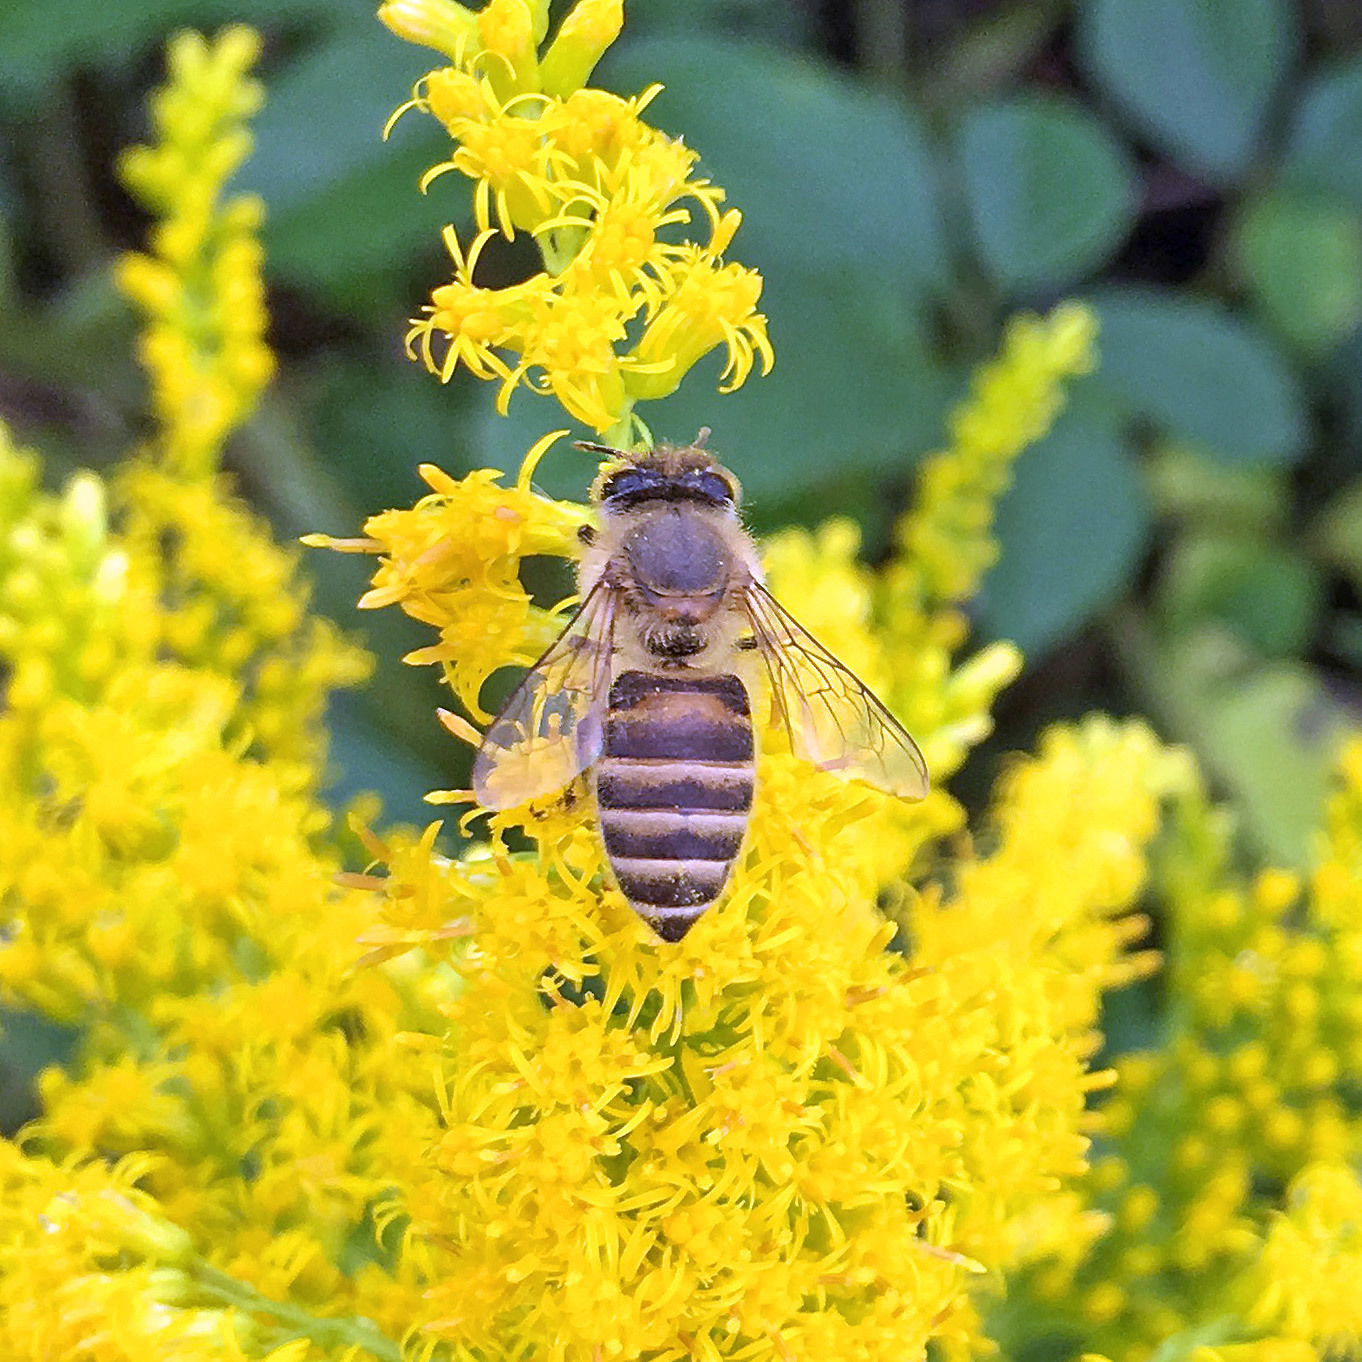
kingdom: Animalia
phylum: Arthropoda
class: Insecta
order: Hymenoptera
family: Apidae
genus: Apis
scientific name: Apis cerana
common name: Honey bee
